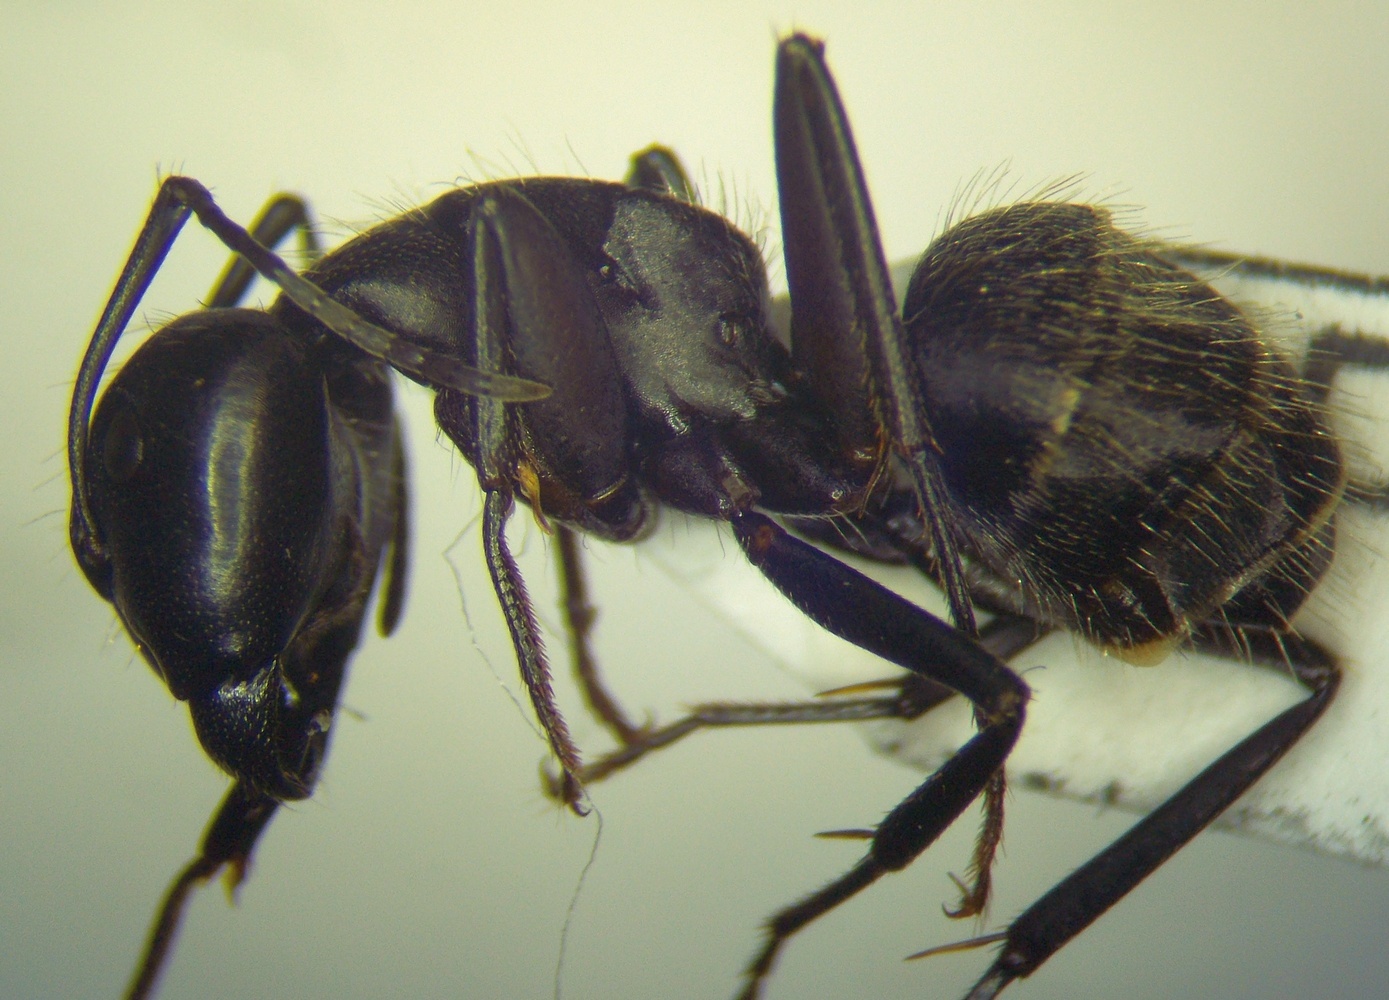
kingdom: Animalia
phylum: Arthropoda
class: Insecta
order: Hymenoptera
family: Formicidae
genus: Camponotus
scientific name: Camponotus vagus
